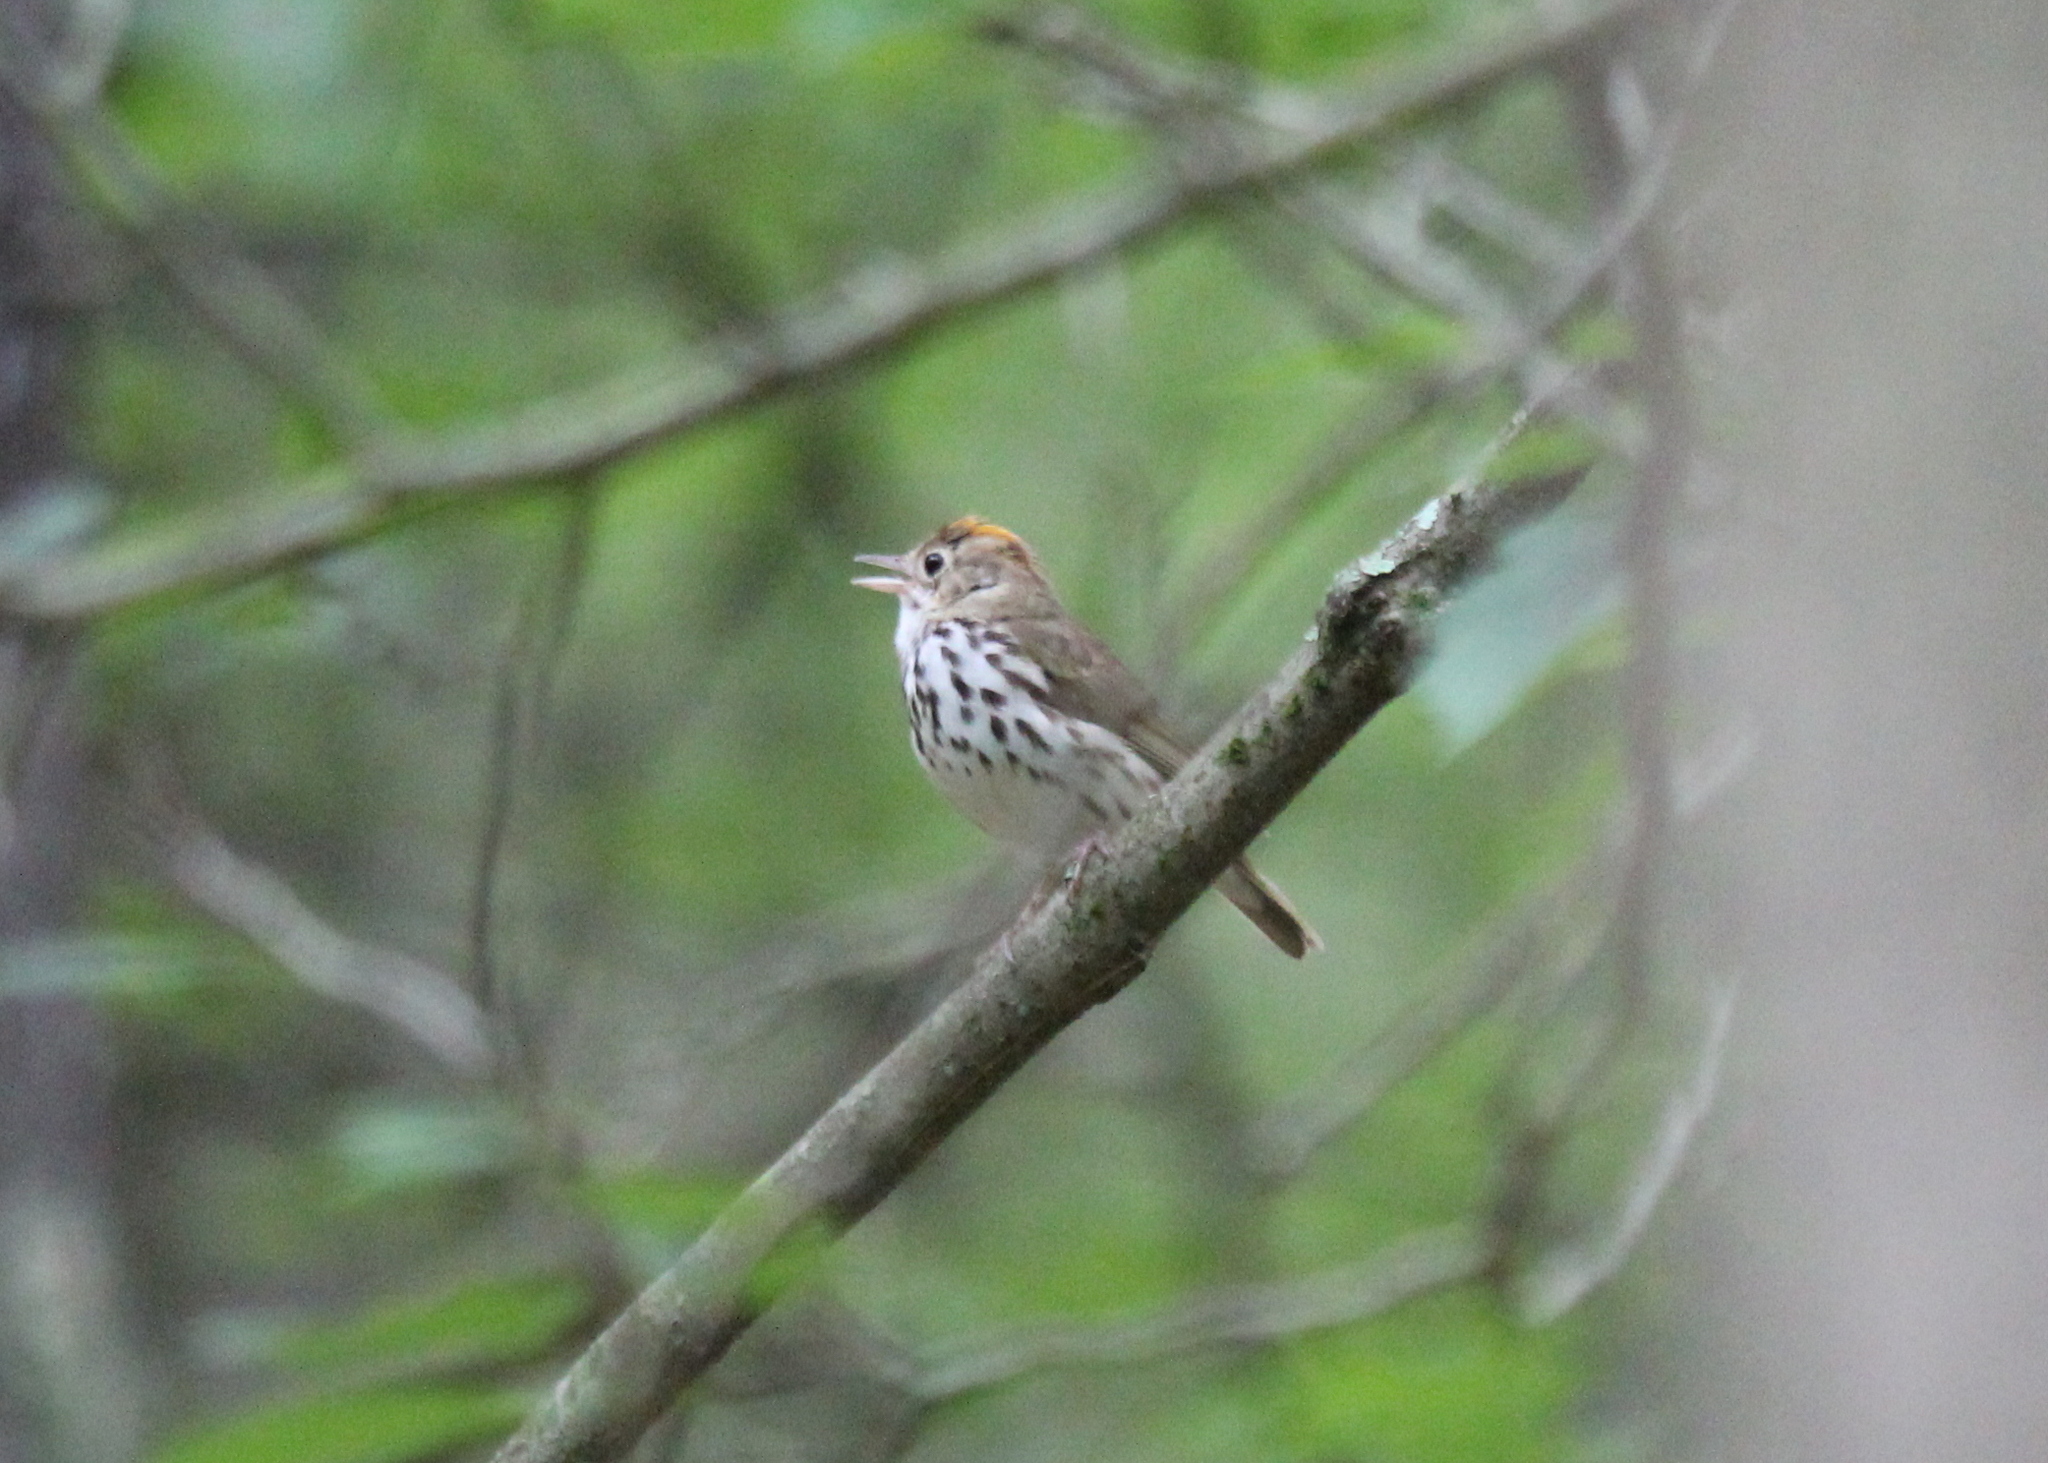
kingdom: Animalia
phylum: Chordata
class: Aves
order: Passeriformes
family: Parulidae
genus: Seiurus
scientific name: Seiurus aurocapilla
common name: Ovenbird
